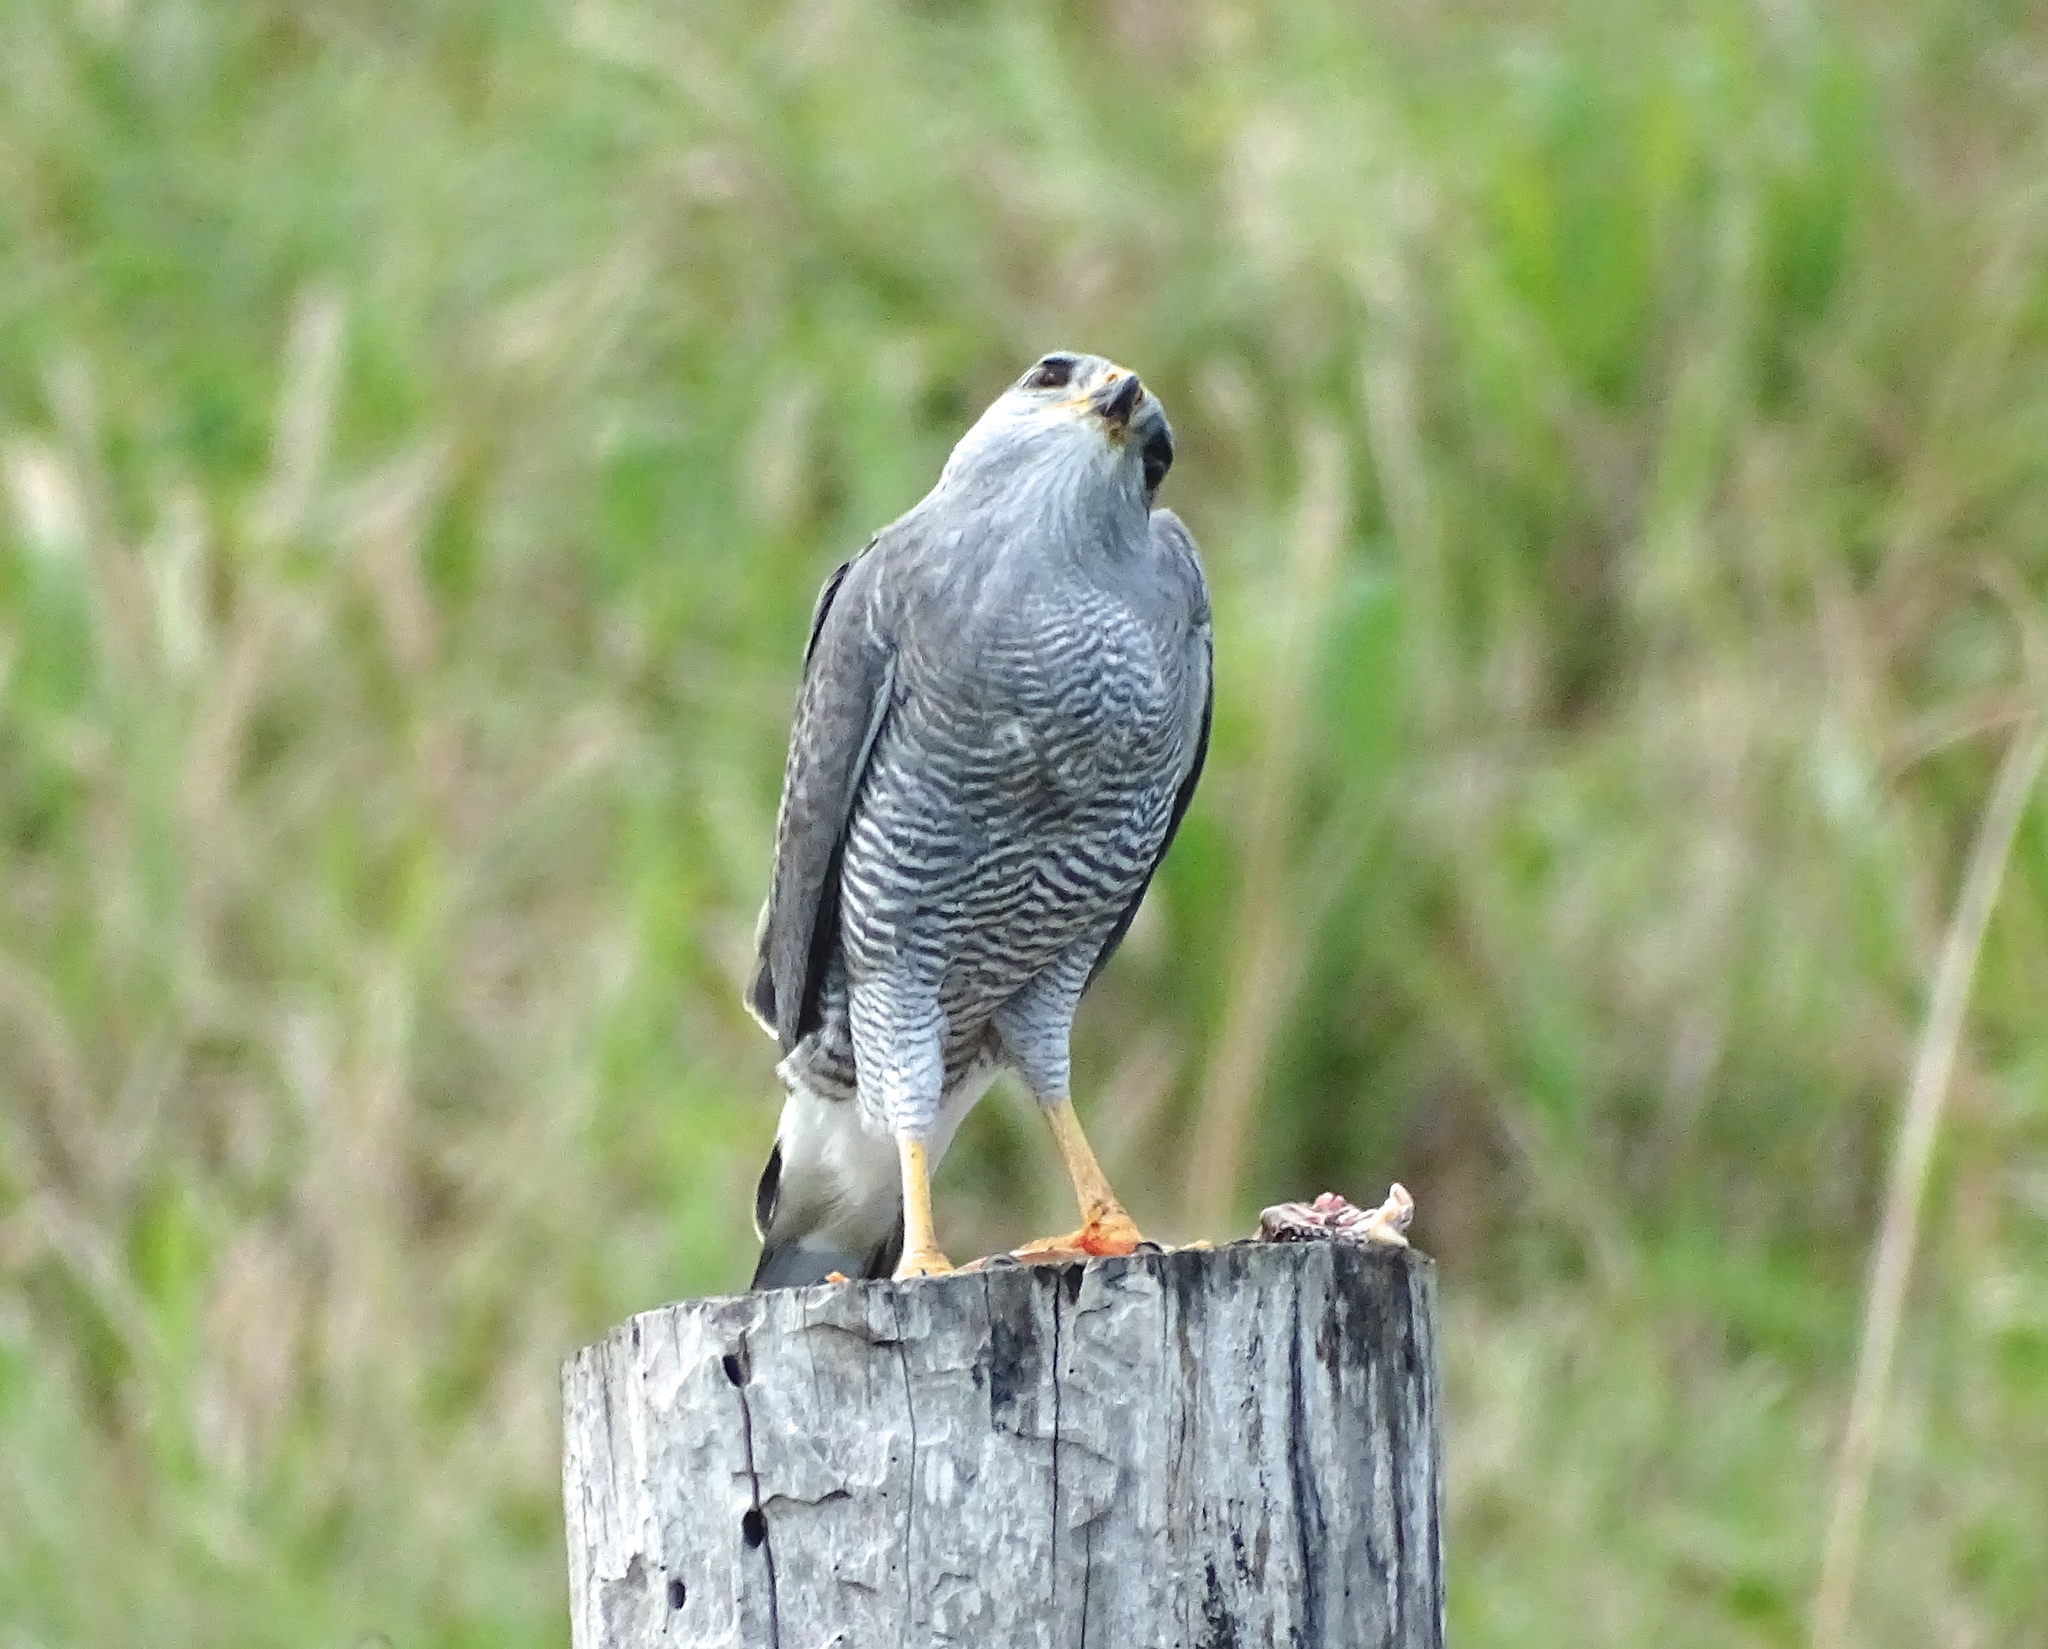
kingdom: Animalia
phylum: Chordata
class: Aves
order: Accipitriformes
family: Accipitridae
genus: Buteo
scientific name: Buteo nitidus
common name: Grey-lined hawk
